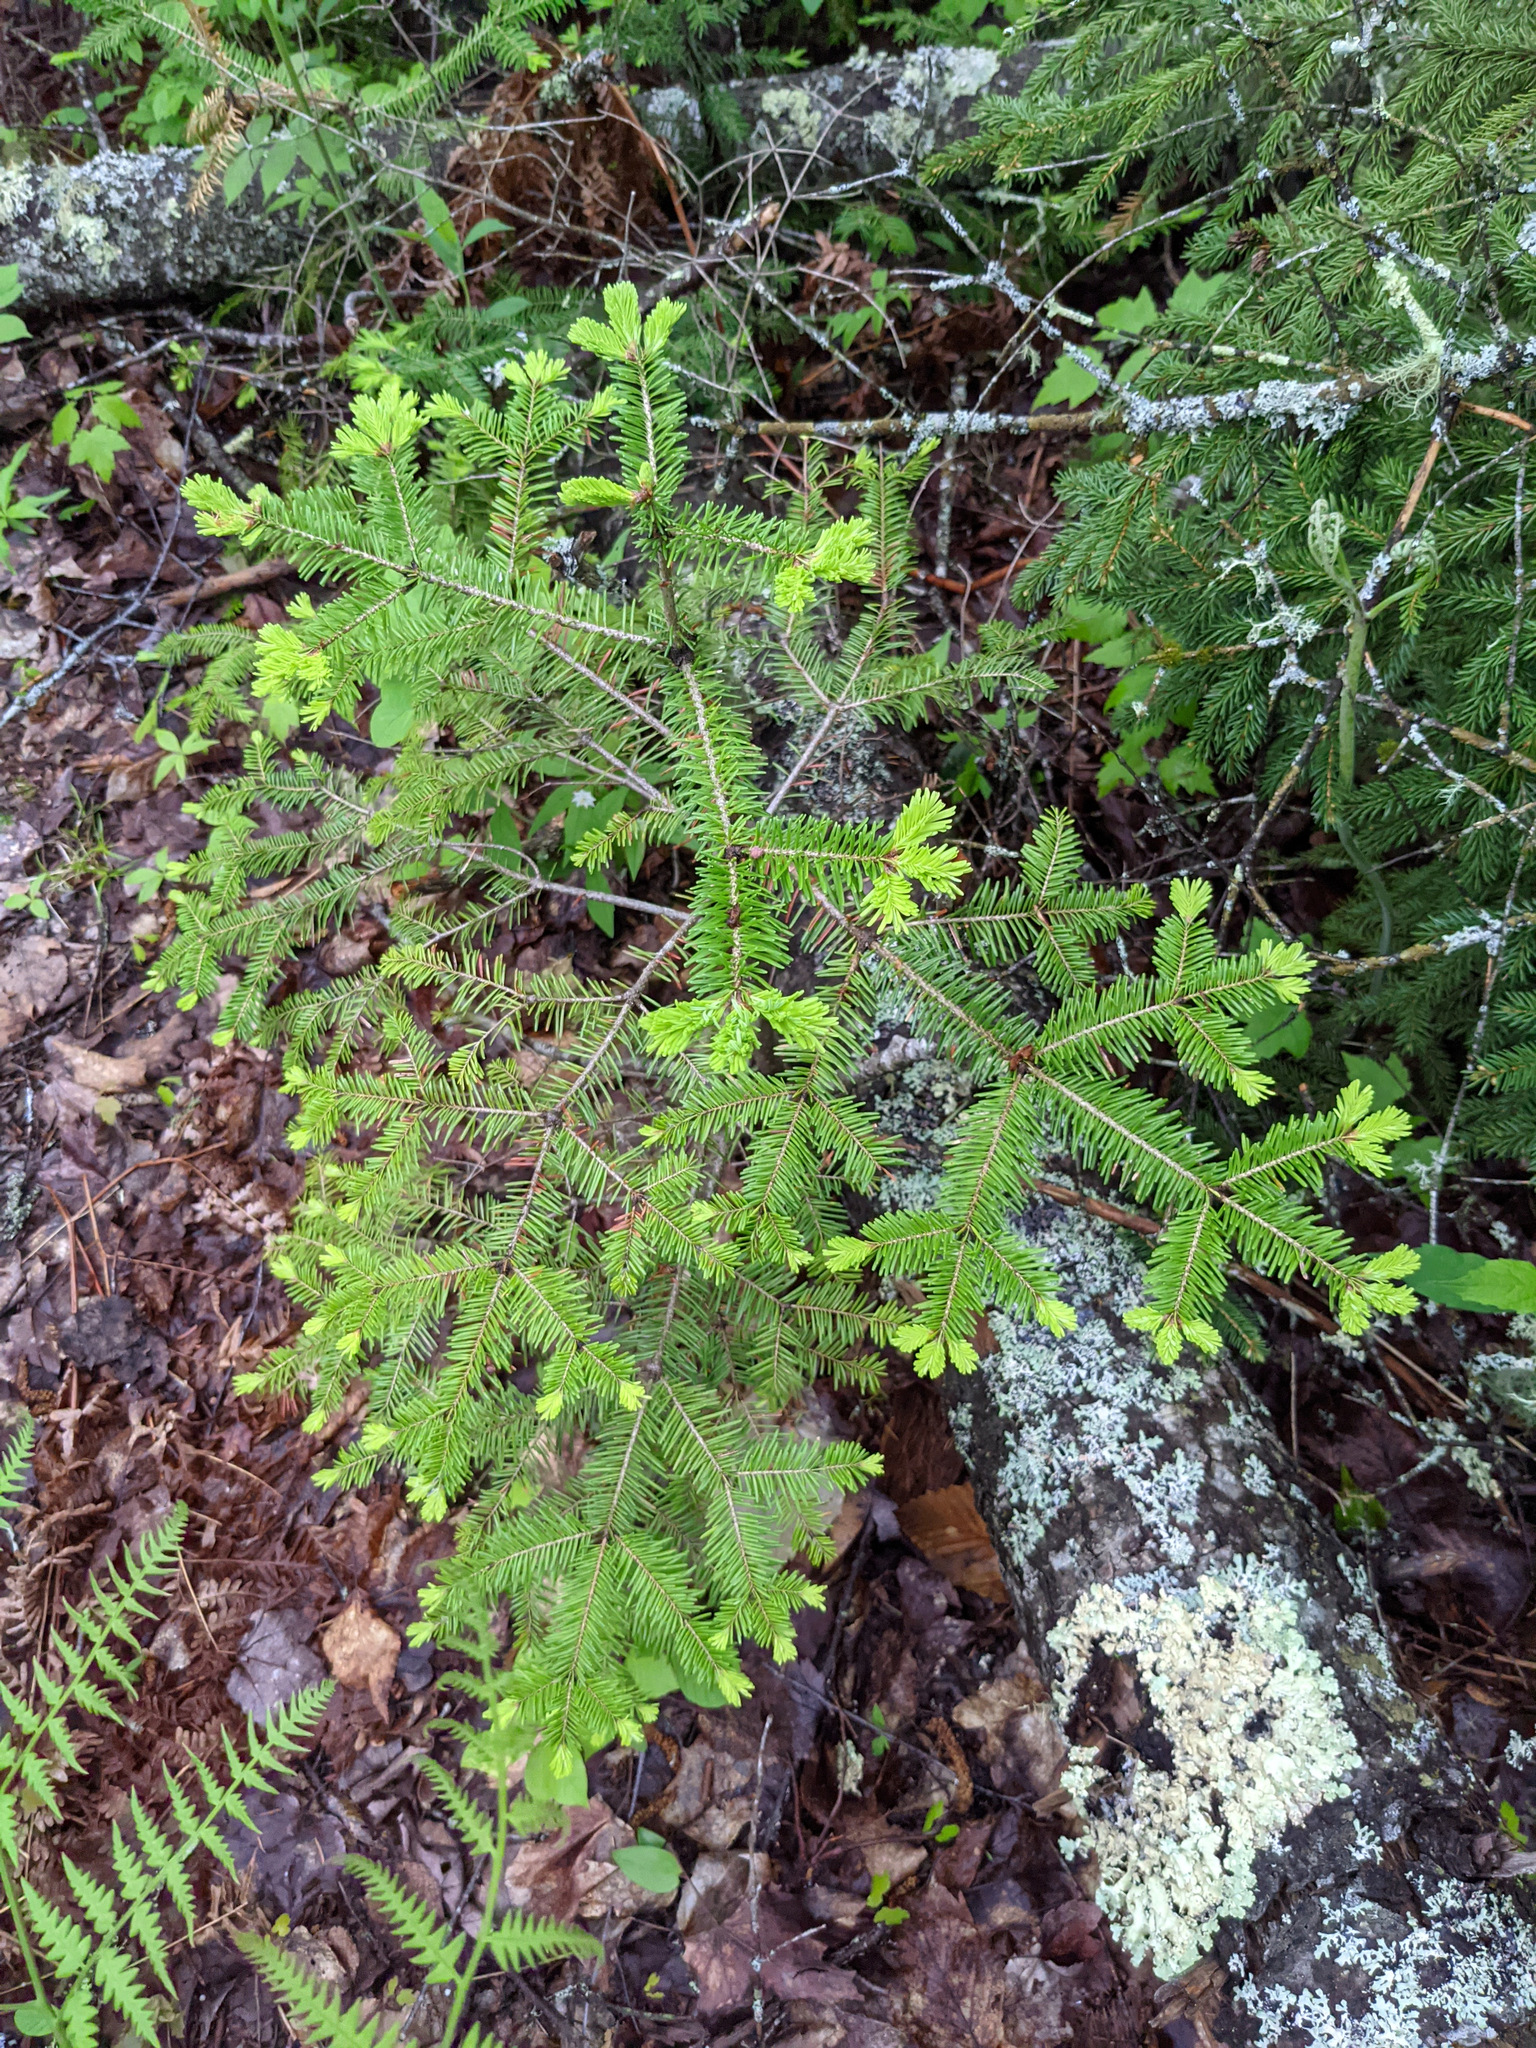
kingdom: Plantae
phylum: Tracheophyta
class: Pinopsida
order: Pinales
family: Pinaceae
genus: Abies
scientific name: Abies balsamea
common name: Balsam fir
